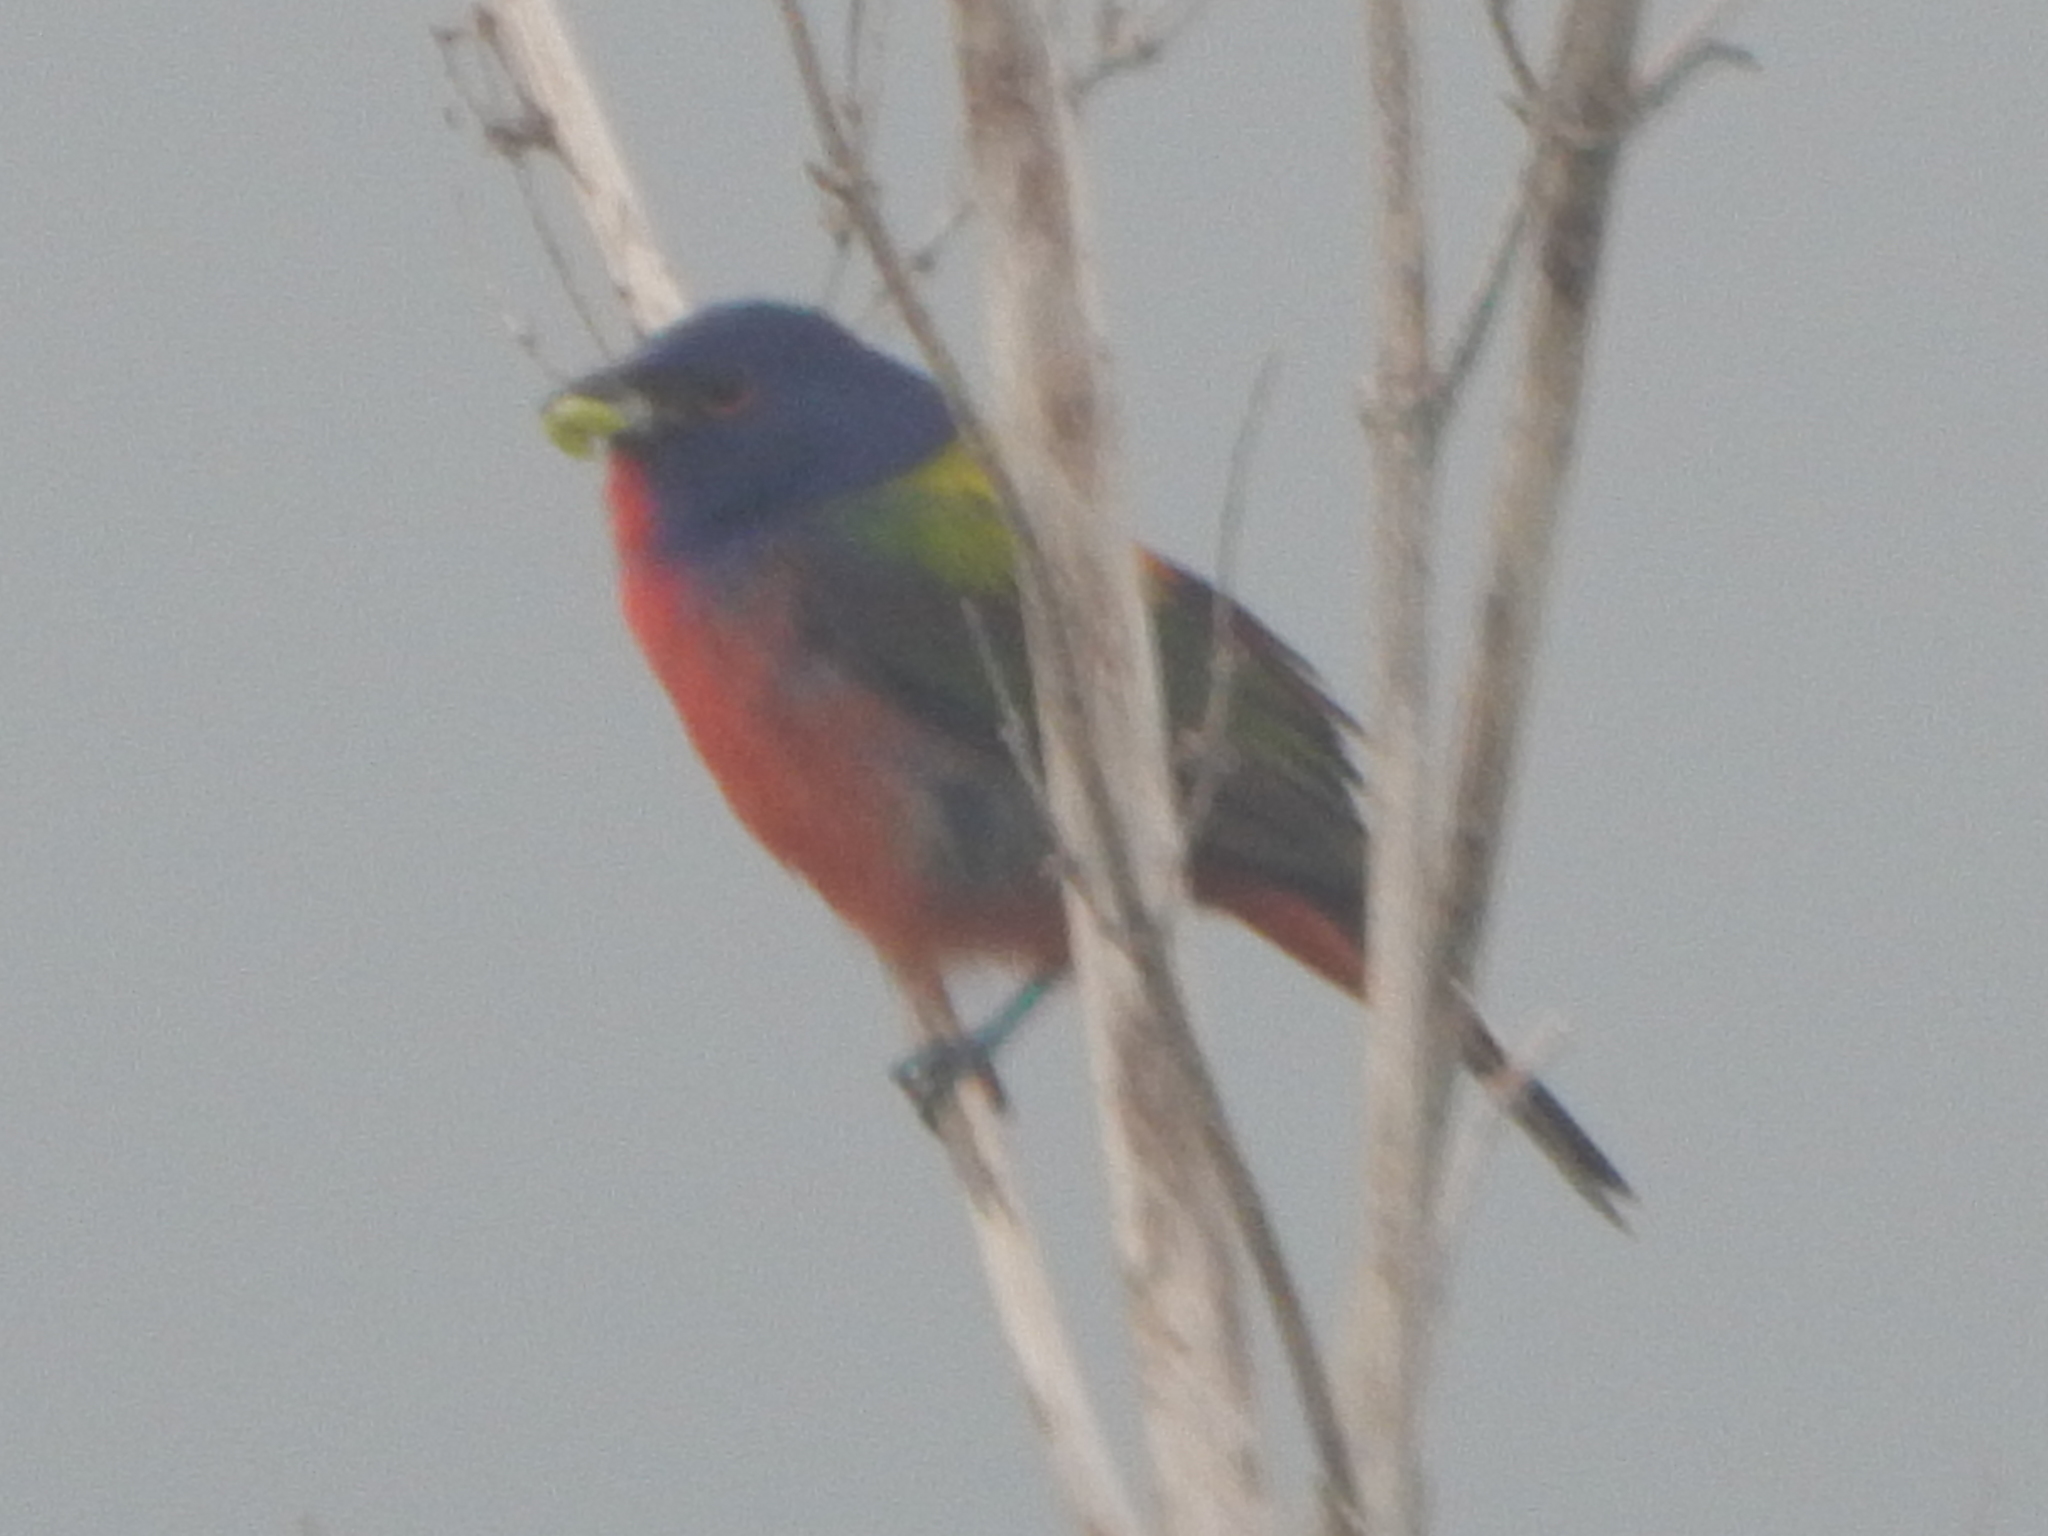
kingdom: Animalia
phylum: Chordata
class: Aves
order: Passeriformes
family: Cardinalidae
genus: Passerina
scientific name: Passerina ciris
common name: Painted bunting
